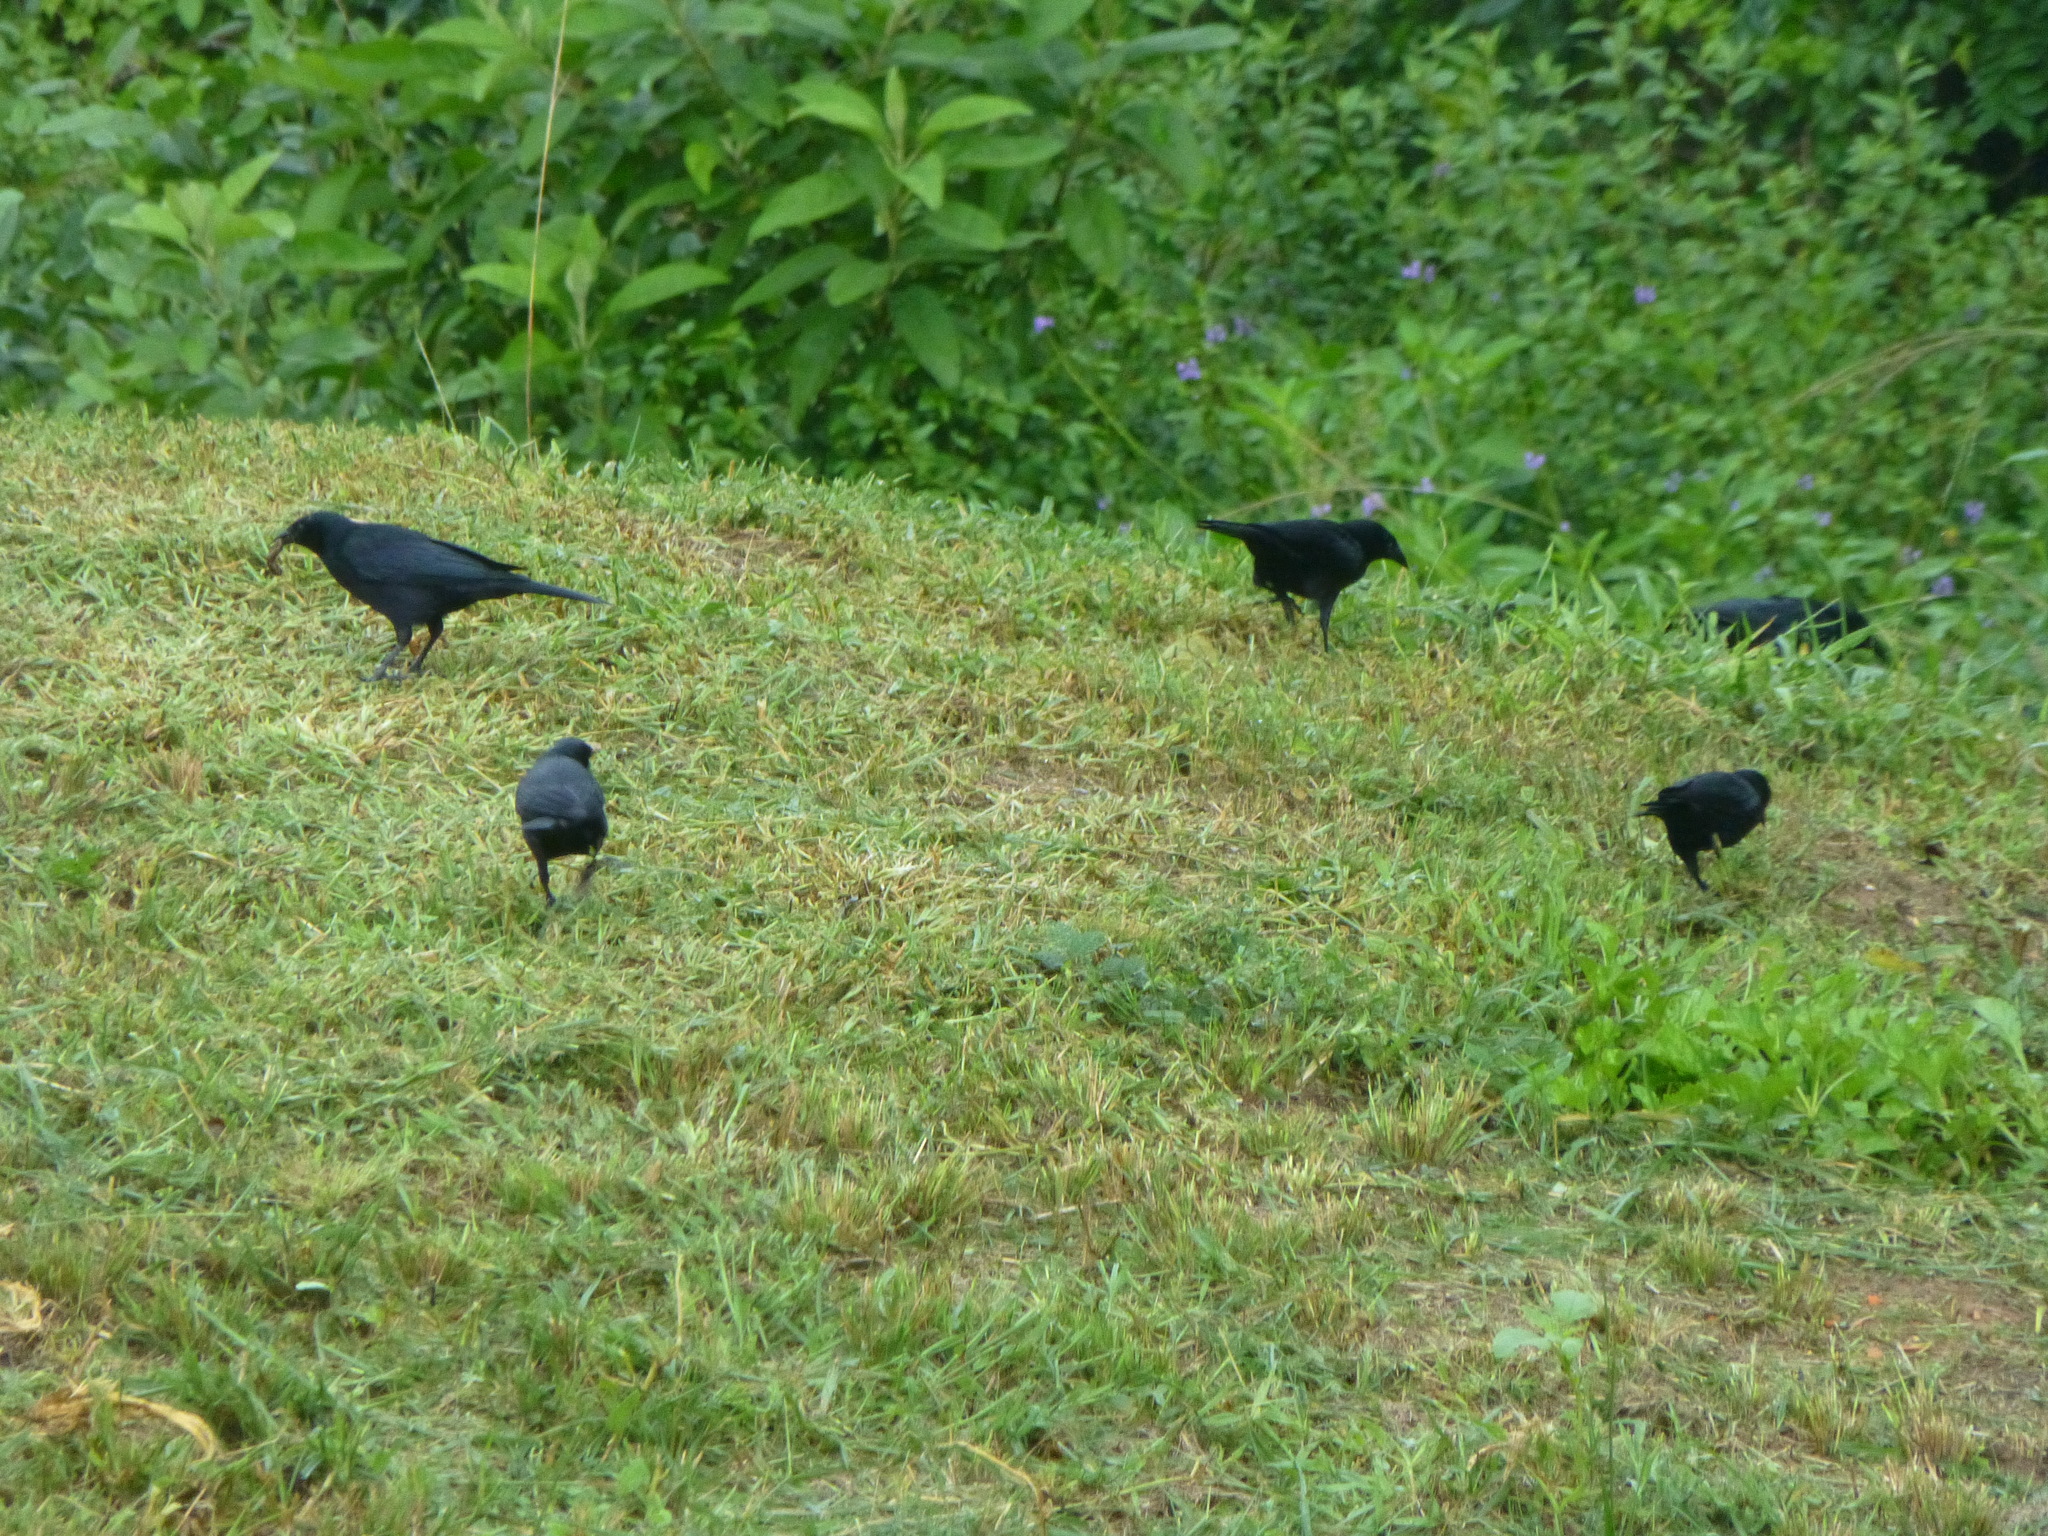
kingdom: Animalia
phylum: Chordata
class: Aves
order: Passeriformes
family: Icteridae
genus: Dives
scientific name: Dives atroviolaceus
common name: Cuban blackbird
